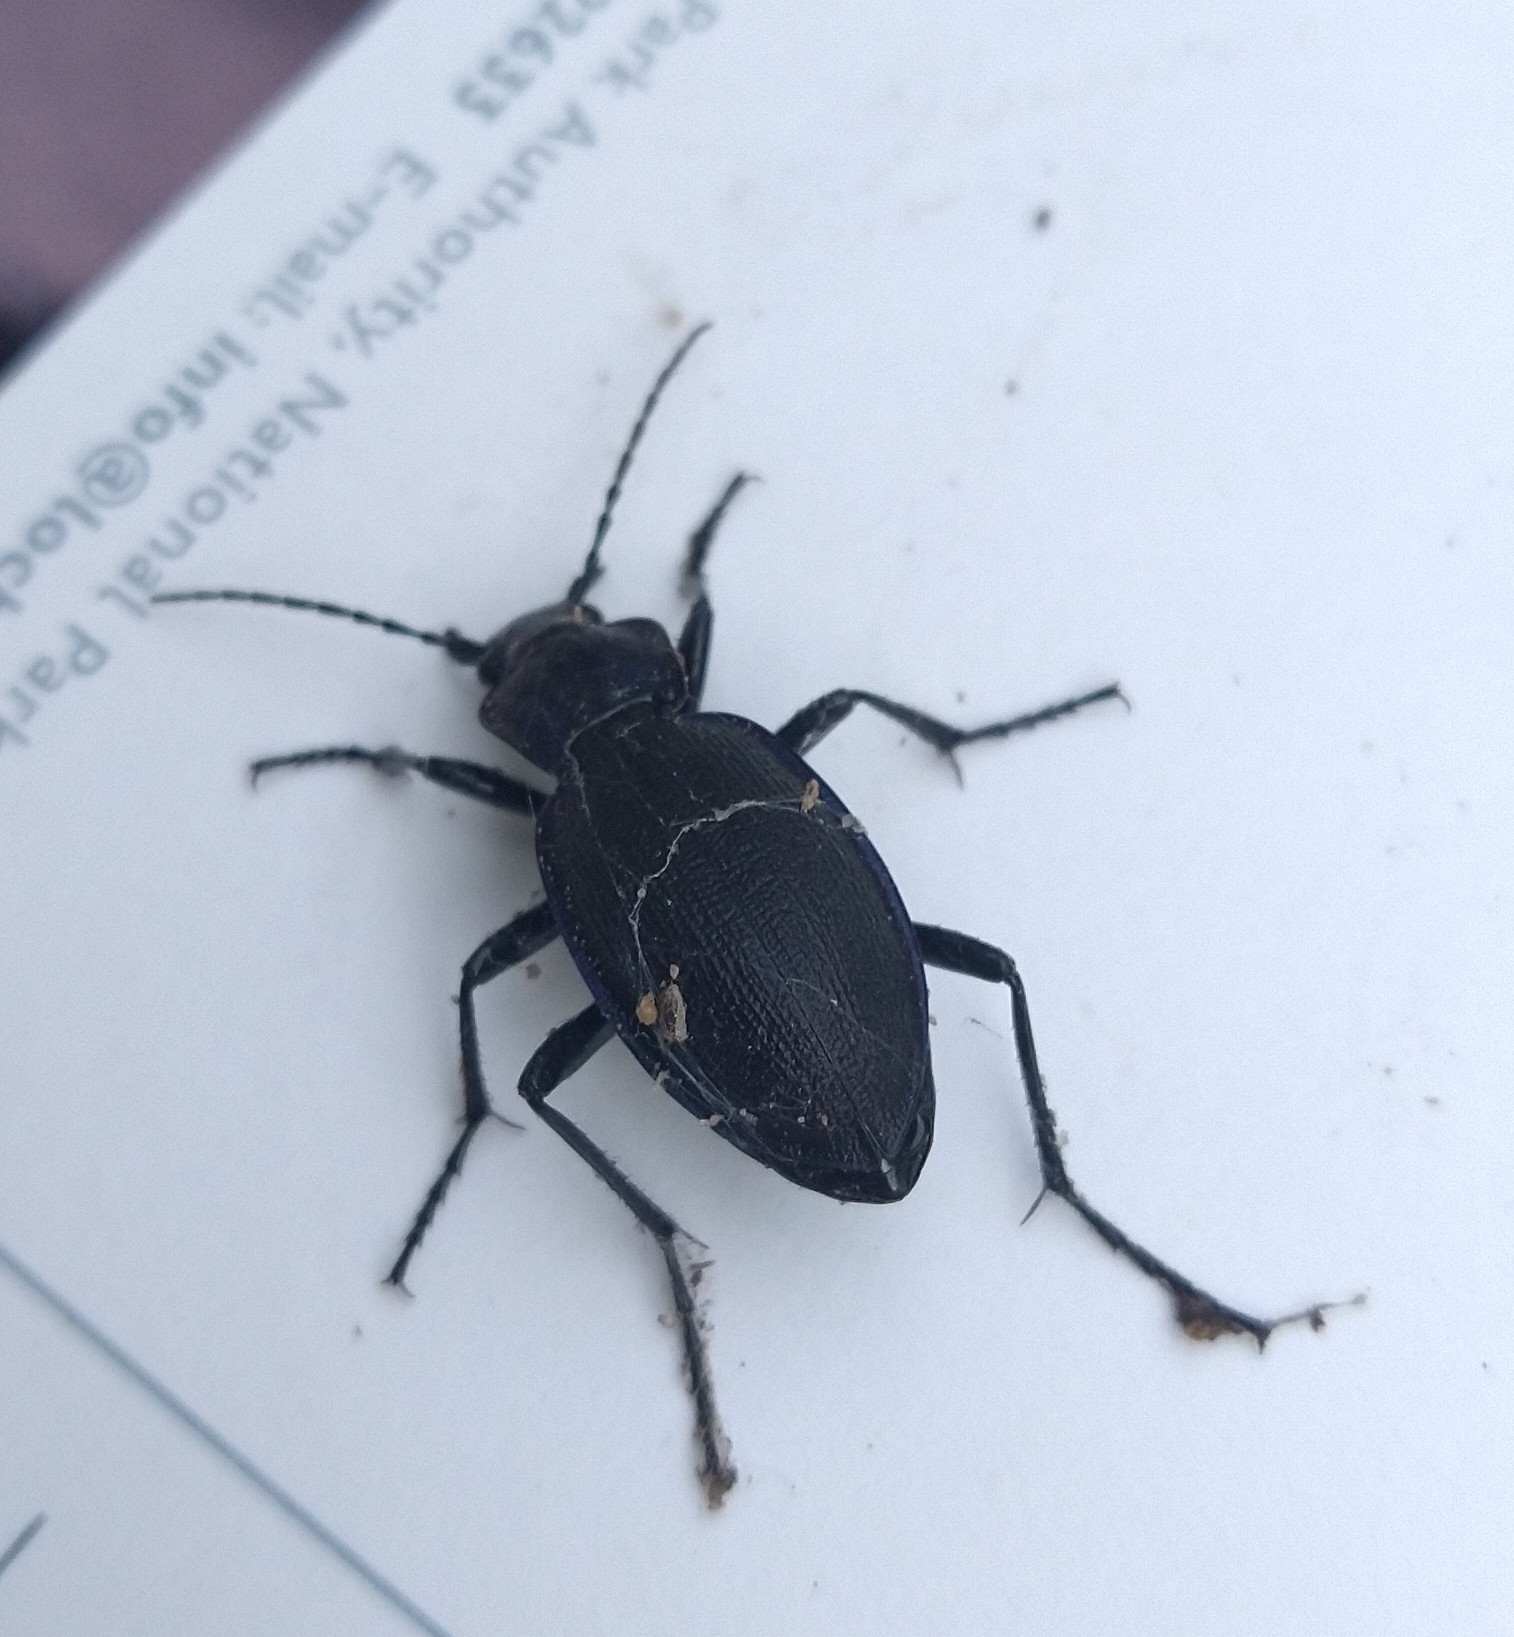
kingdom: Animalia
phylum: Arthropoda
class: Insecta
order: Coleoptera
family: Carabidae
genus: Carabus
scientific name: Carabus violaceus
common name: Violet ground beetle
